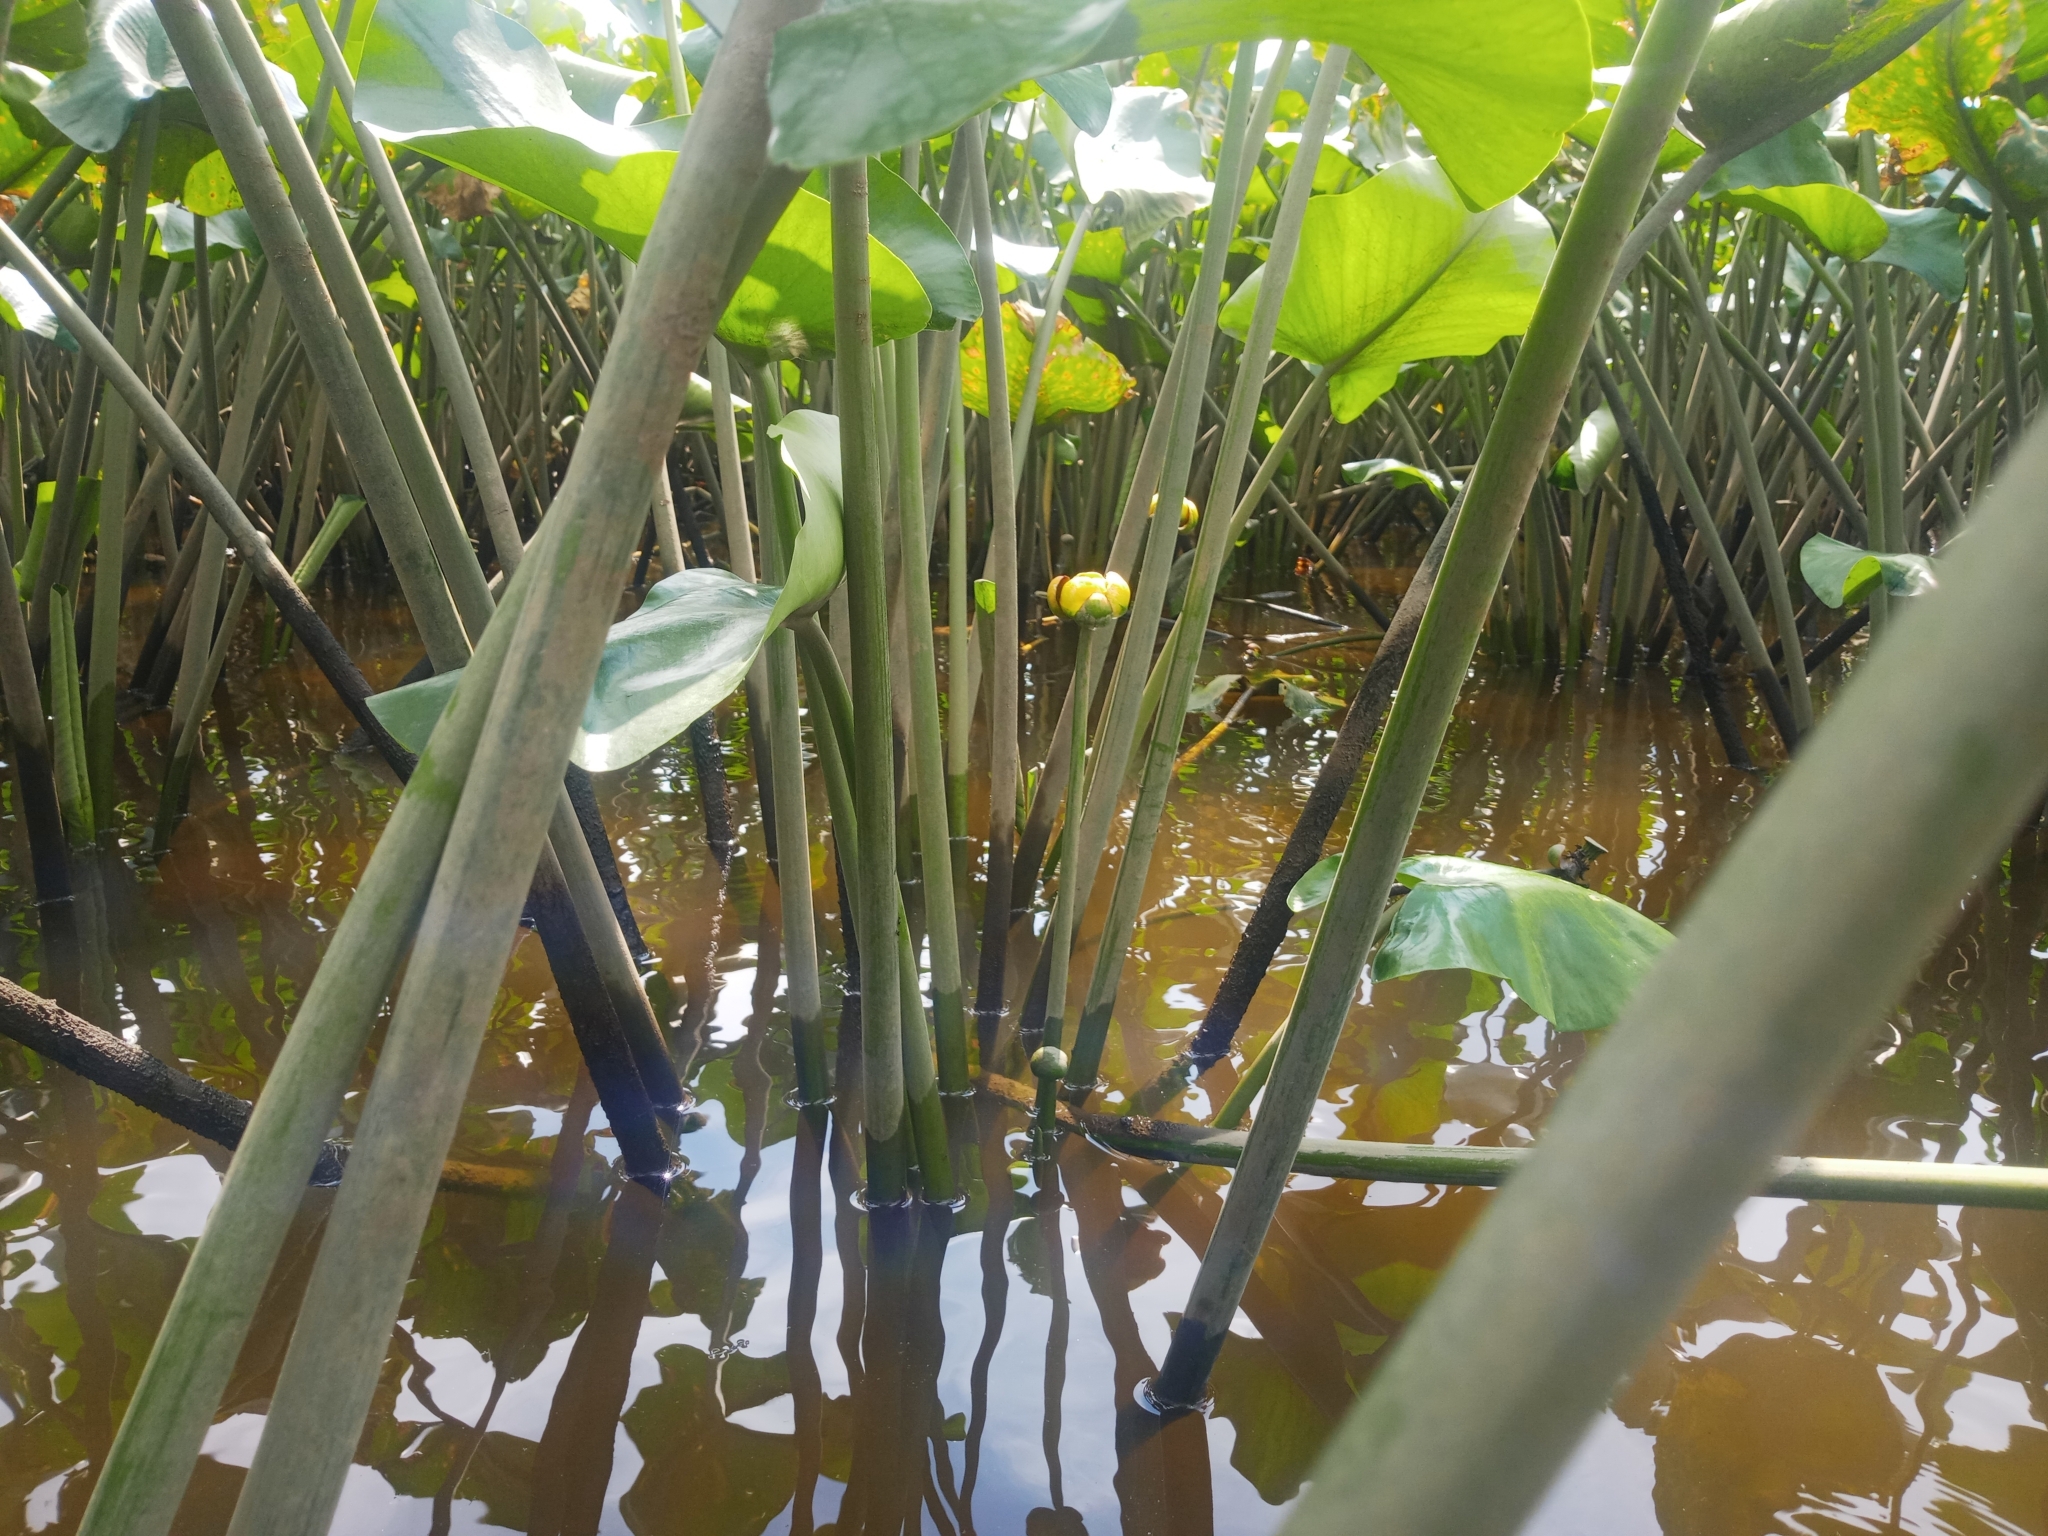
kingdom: Plantae
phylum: Tracheophyta
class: Magnoliopsida
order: Nymphaeales
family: Nymphaeaceae
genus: Nuphar
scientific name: Nuphar advena
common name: Spatter-dock
